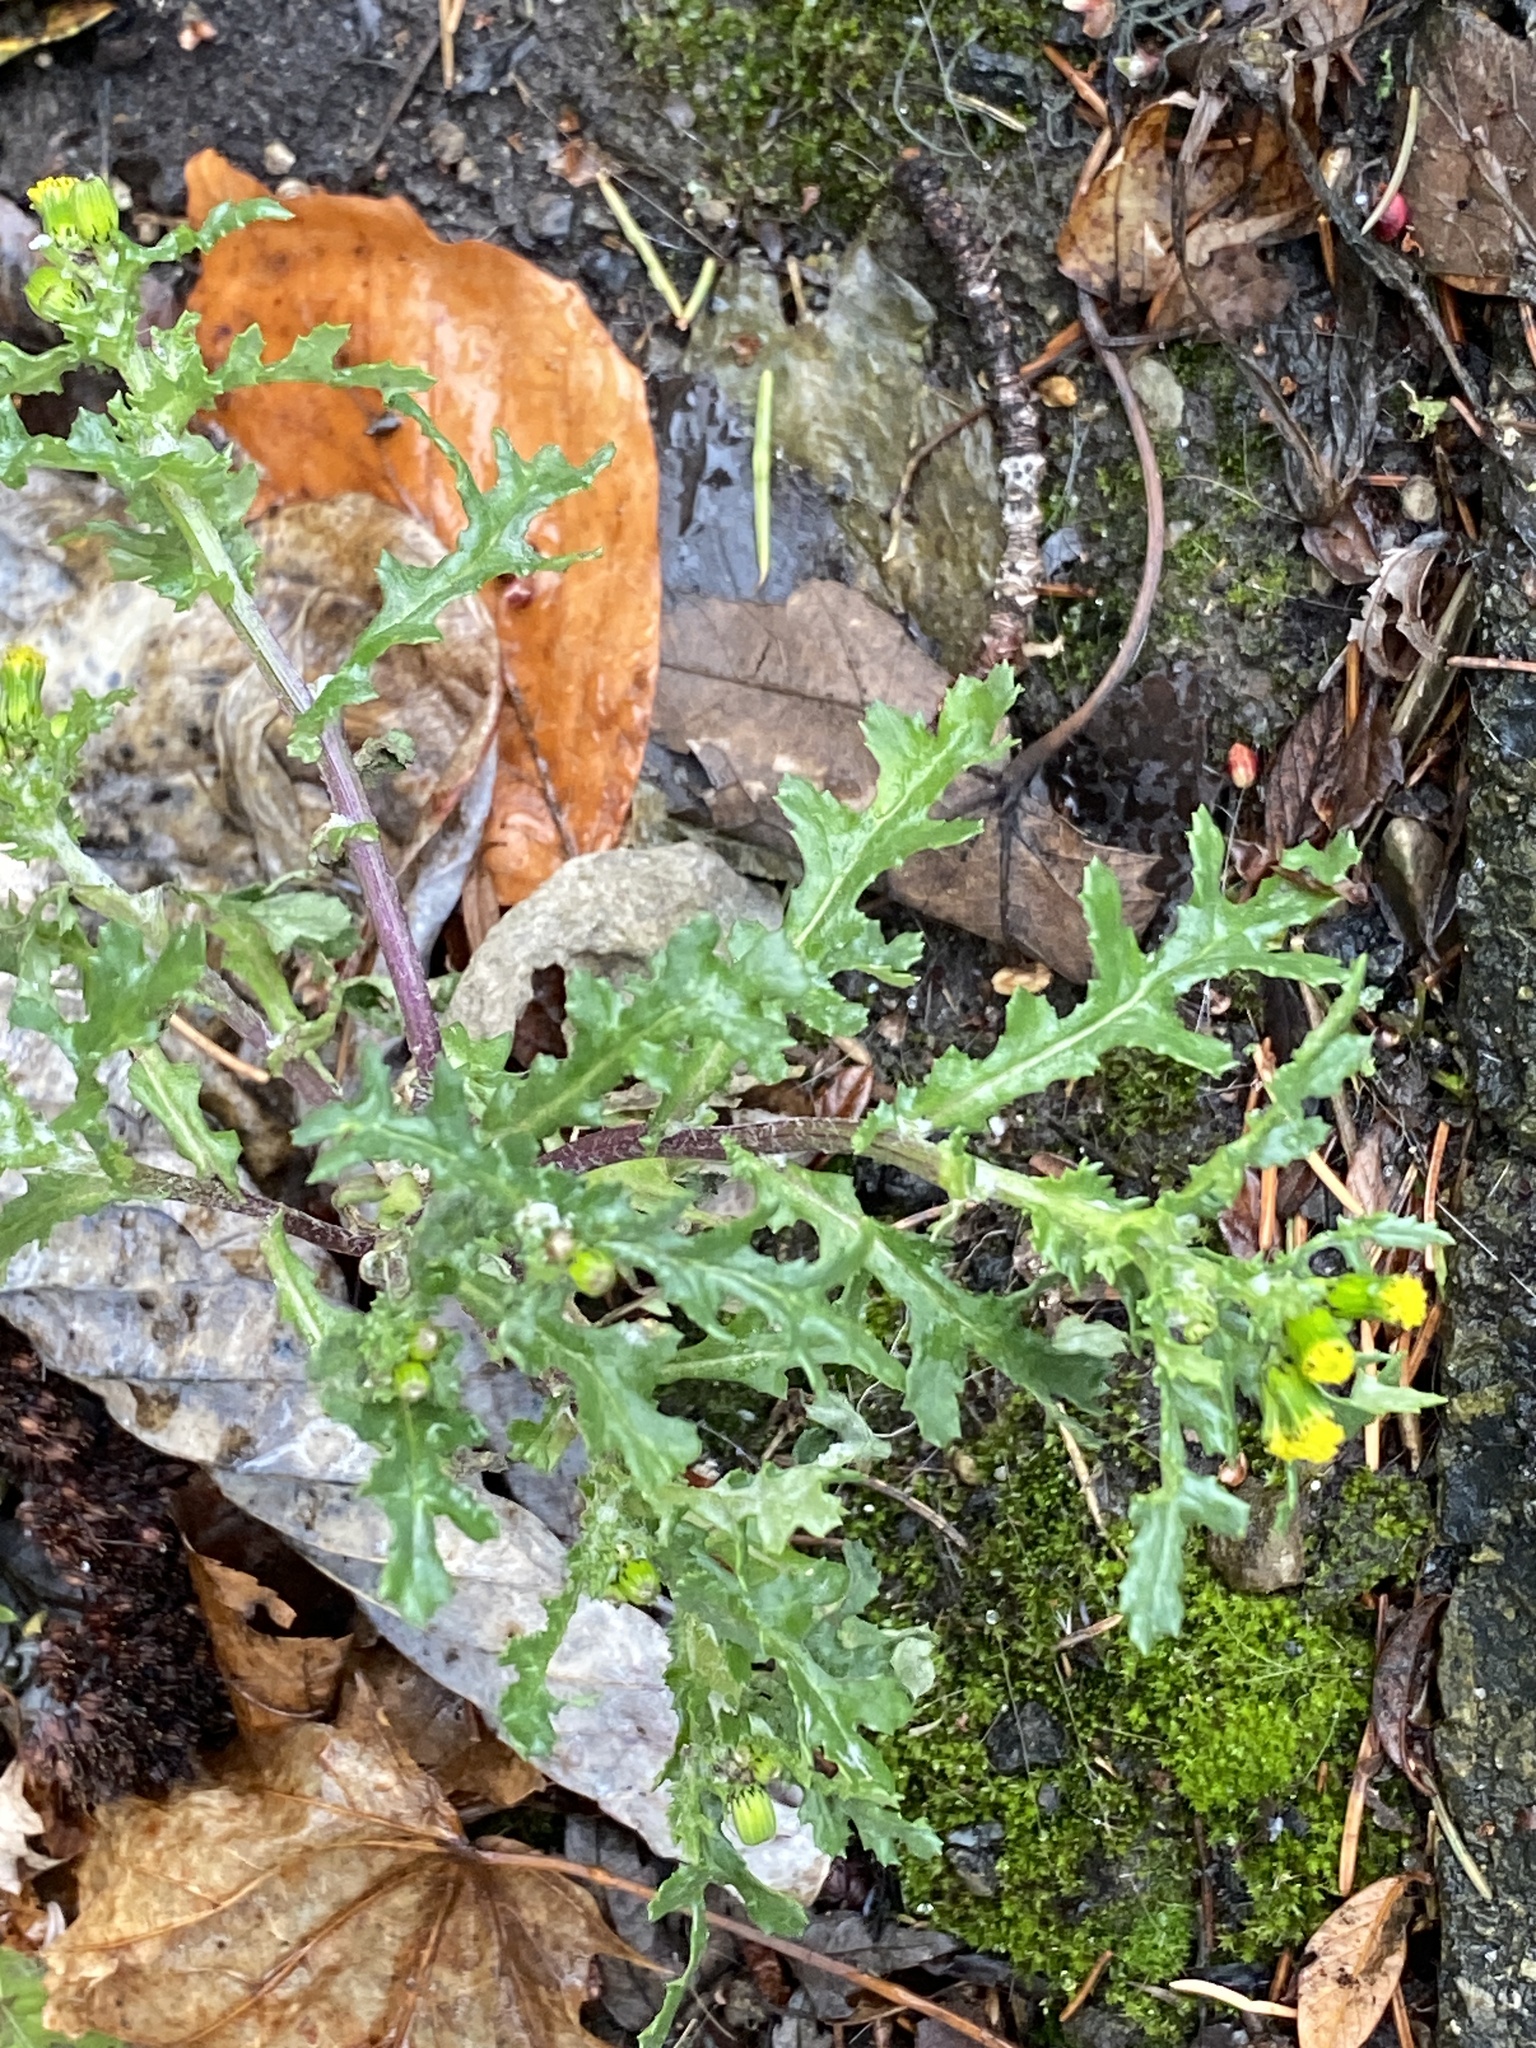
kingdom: Plantae
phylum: Tracheophyta
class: Magnoliopsida
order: Asterales
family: Asteraceae
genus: Senecio
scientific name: Senecio vulgaris
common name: Old-man-in-the-spring
